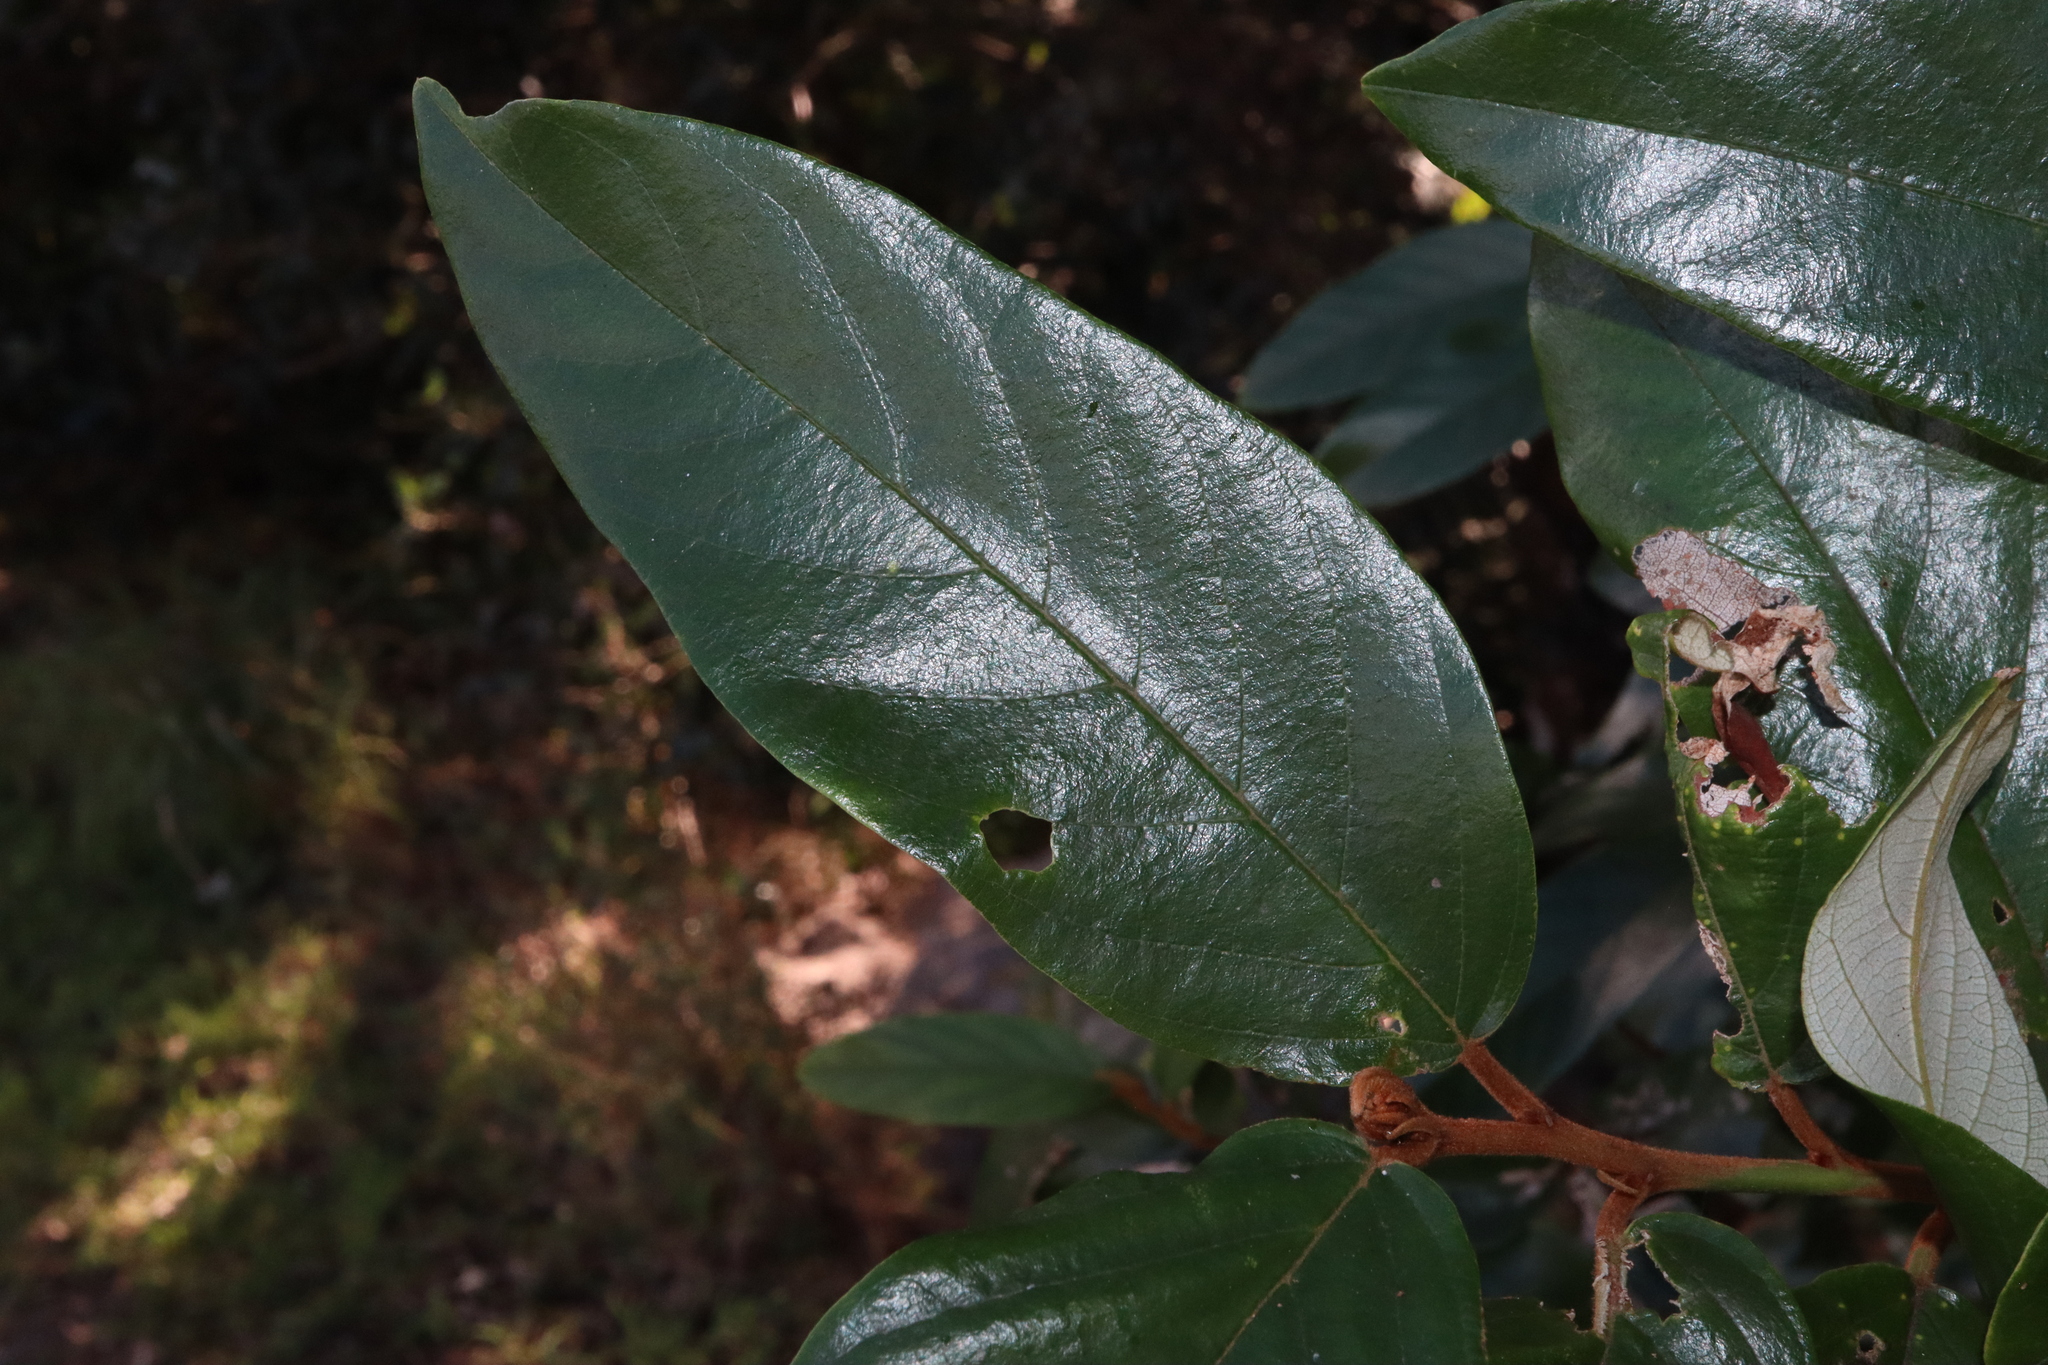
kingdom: Plantae
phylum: Tracheophyta
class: Magnoliopsida
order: Rosales
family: Rhamnaceae
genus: Alphitonia
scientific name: Alphitonia excelsa
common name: Red ash
